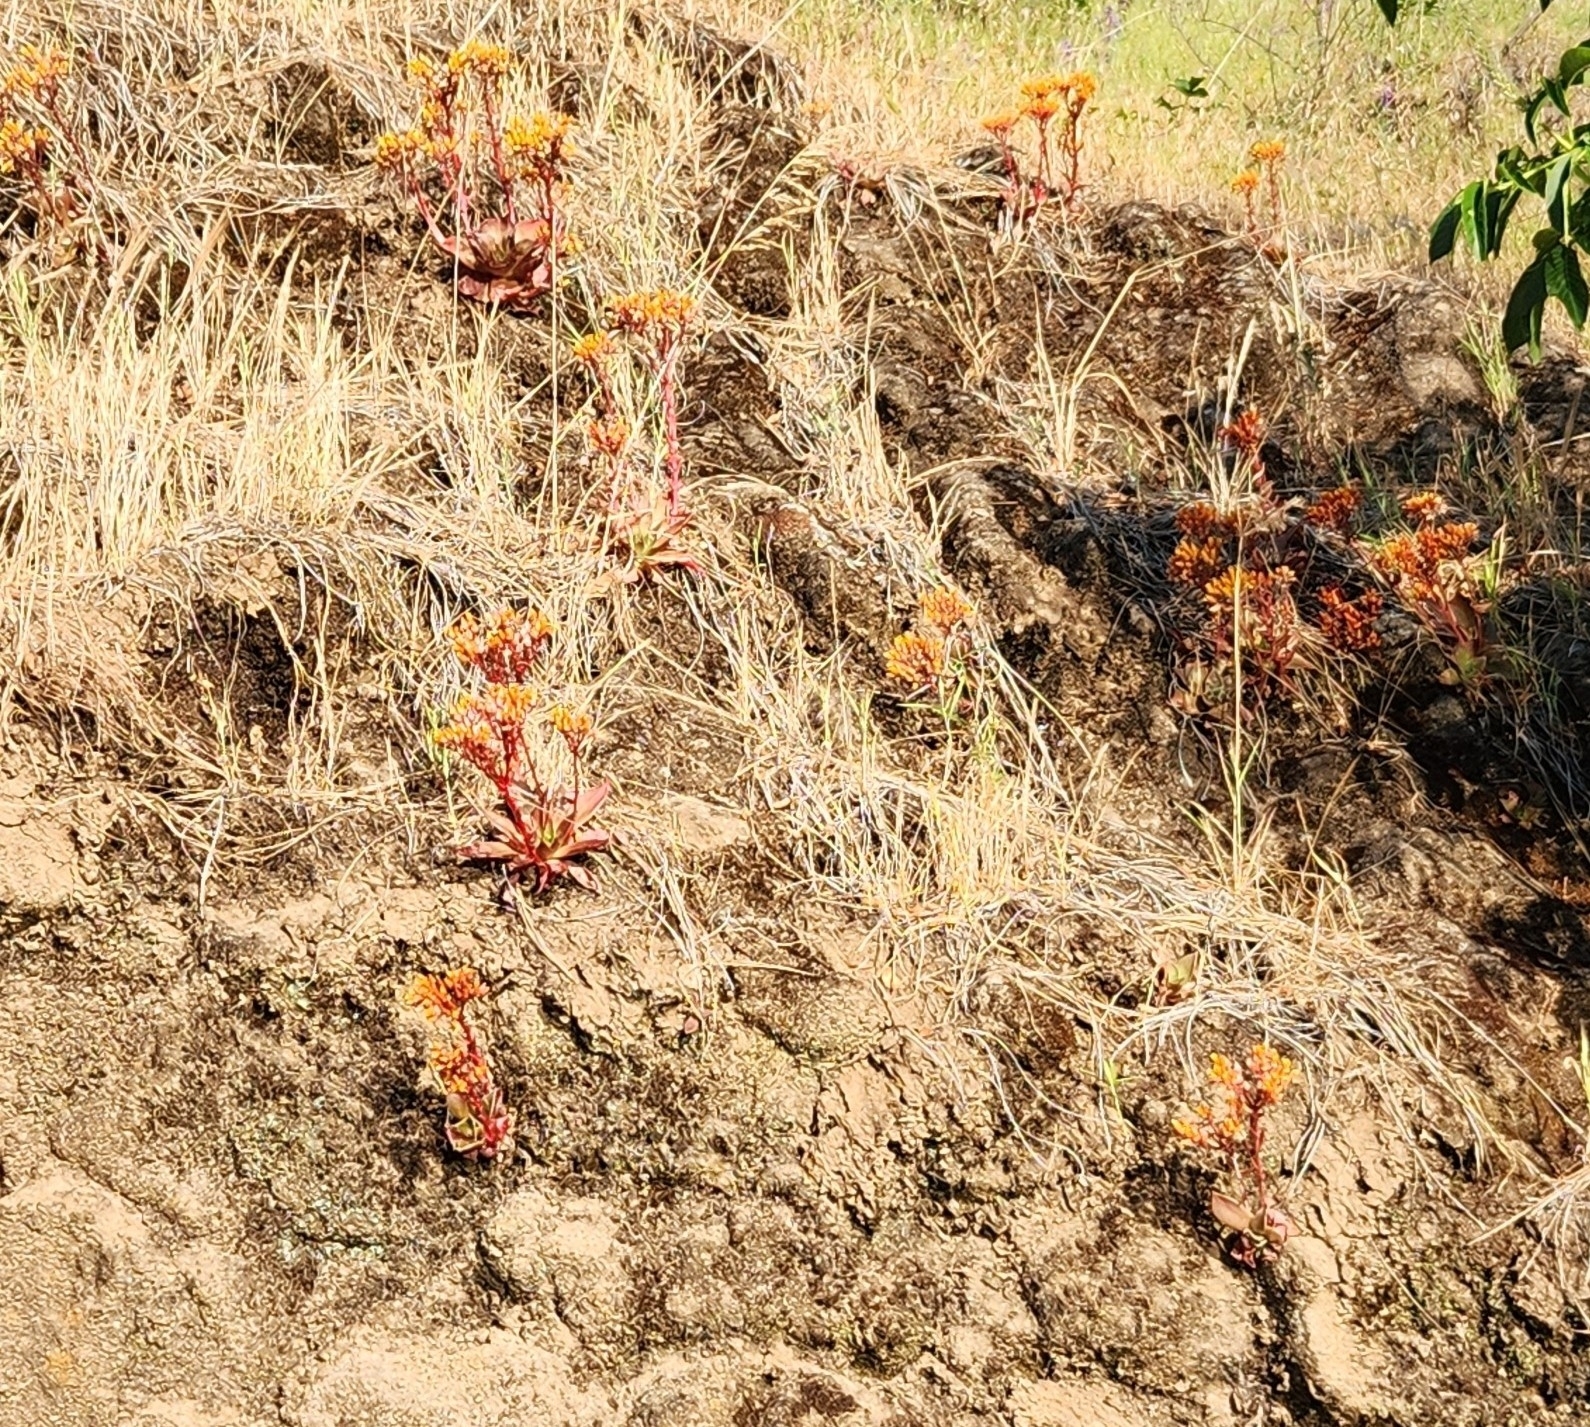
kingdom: Plantae
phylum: Tracheophyta
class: Magnoliopsida
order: Saxifragales
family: Crassulaceae
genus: Dudleya
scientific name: Dudleya cymosa
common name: Canyon dudleya
